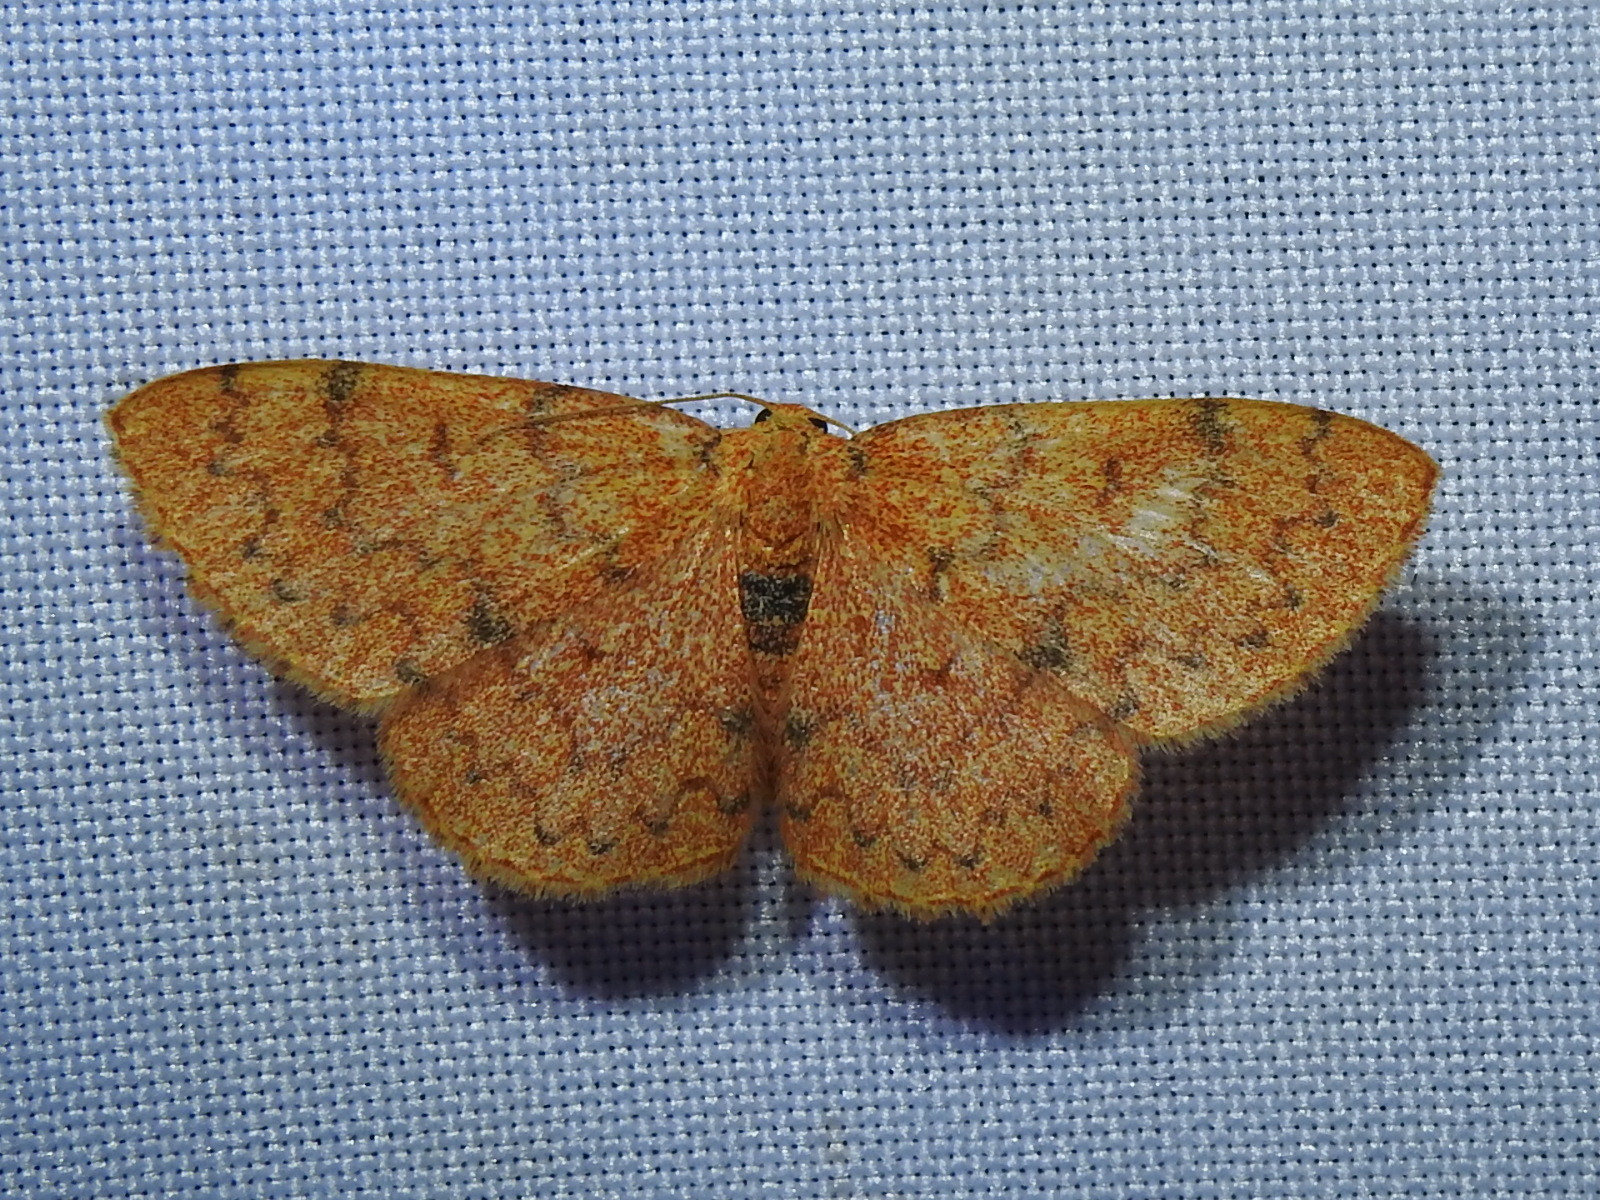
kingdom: Animalia
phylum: Arthropoda
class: Insecta
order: Lepidoptera
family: Geometridae
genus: Semaeopus
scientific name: Semaeopus trophinus
